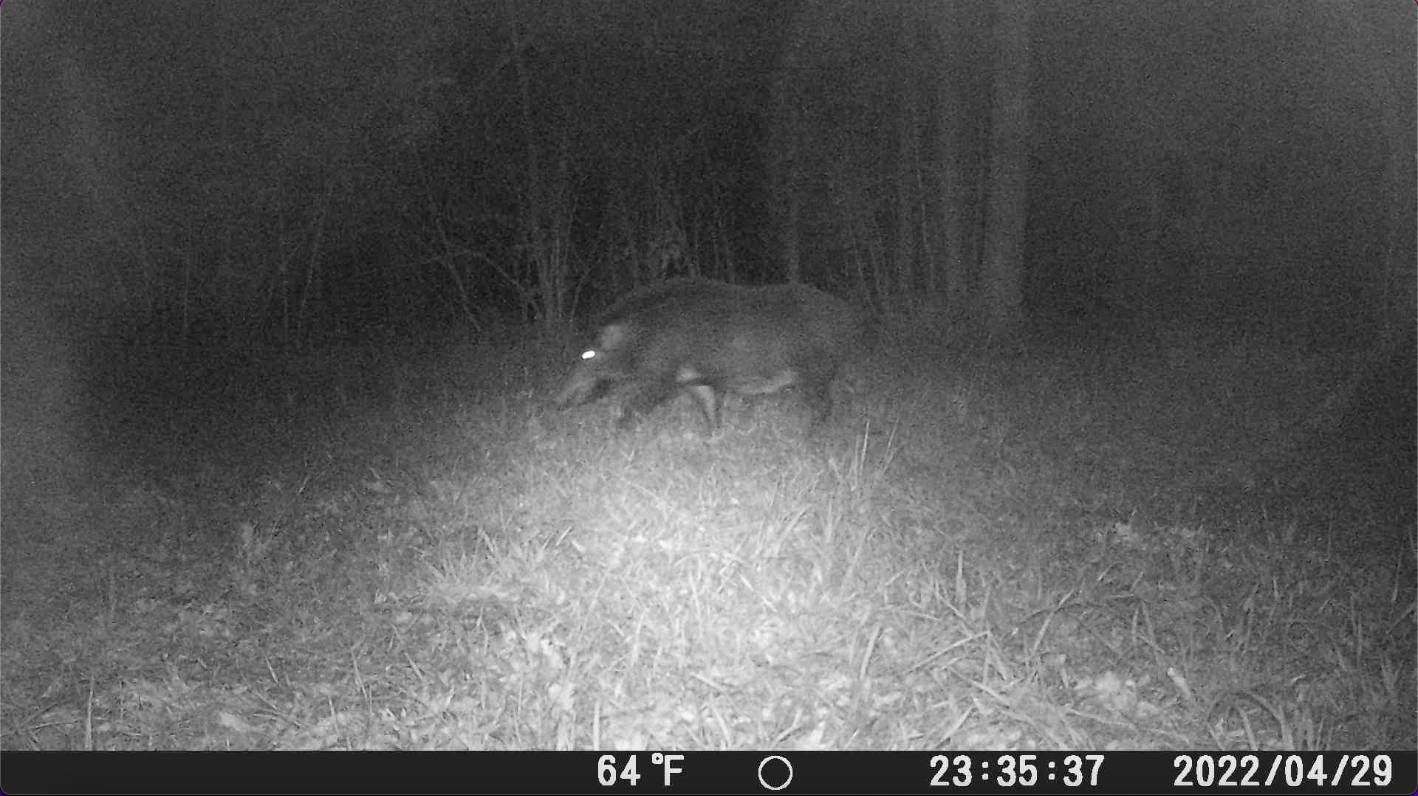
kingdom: Animalia
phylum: Chordata
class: Mammalia
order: Artiodactyla
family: Suidae
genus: Sus
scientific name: Sus scrofa
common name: Wild boar
